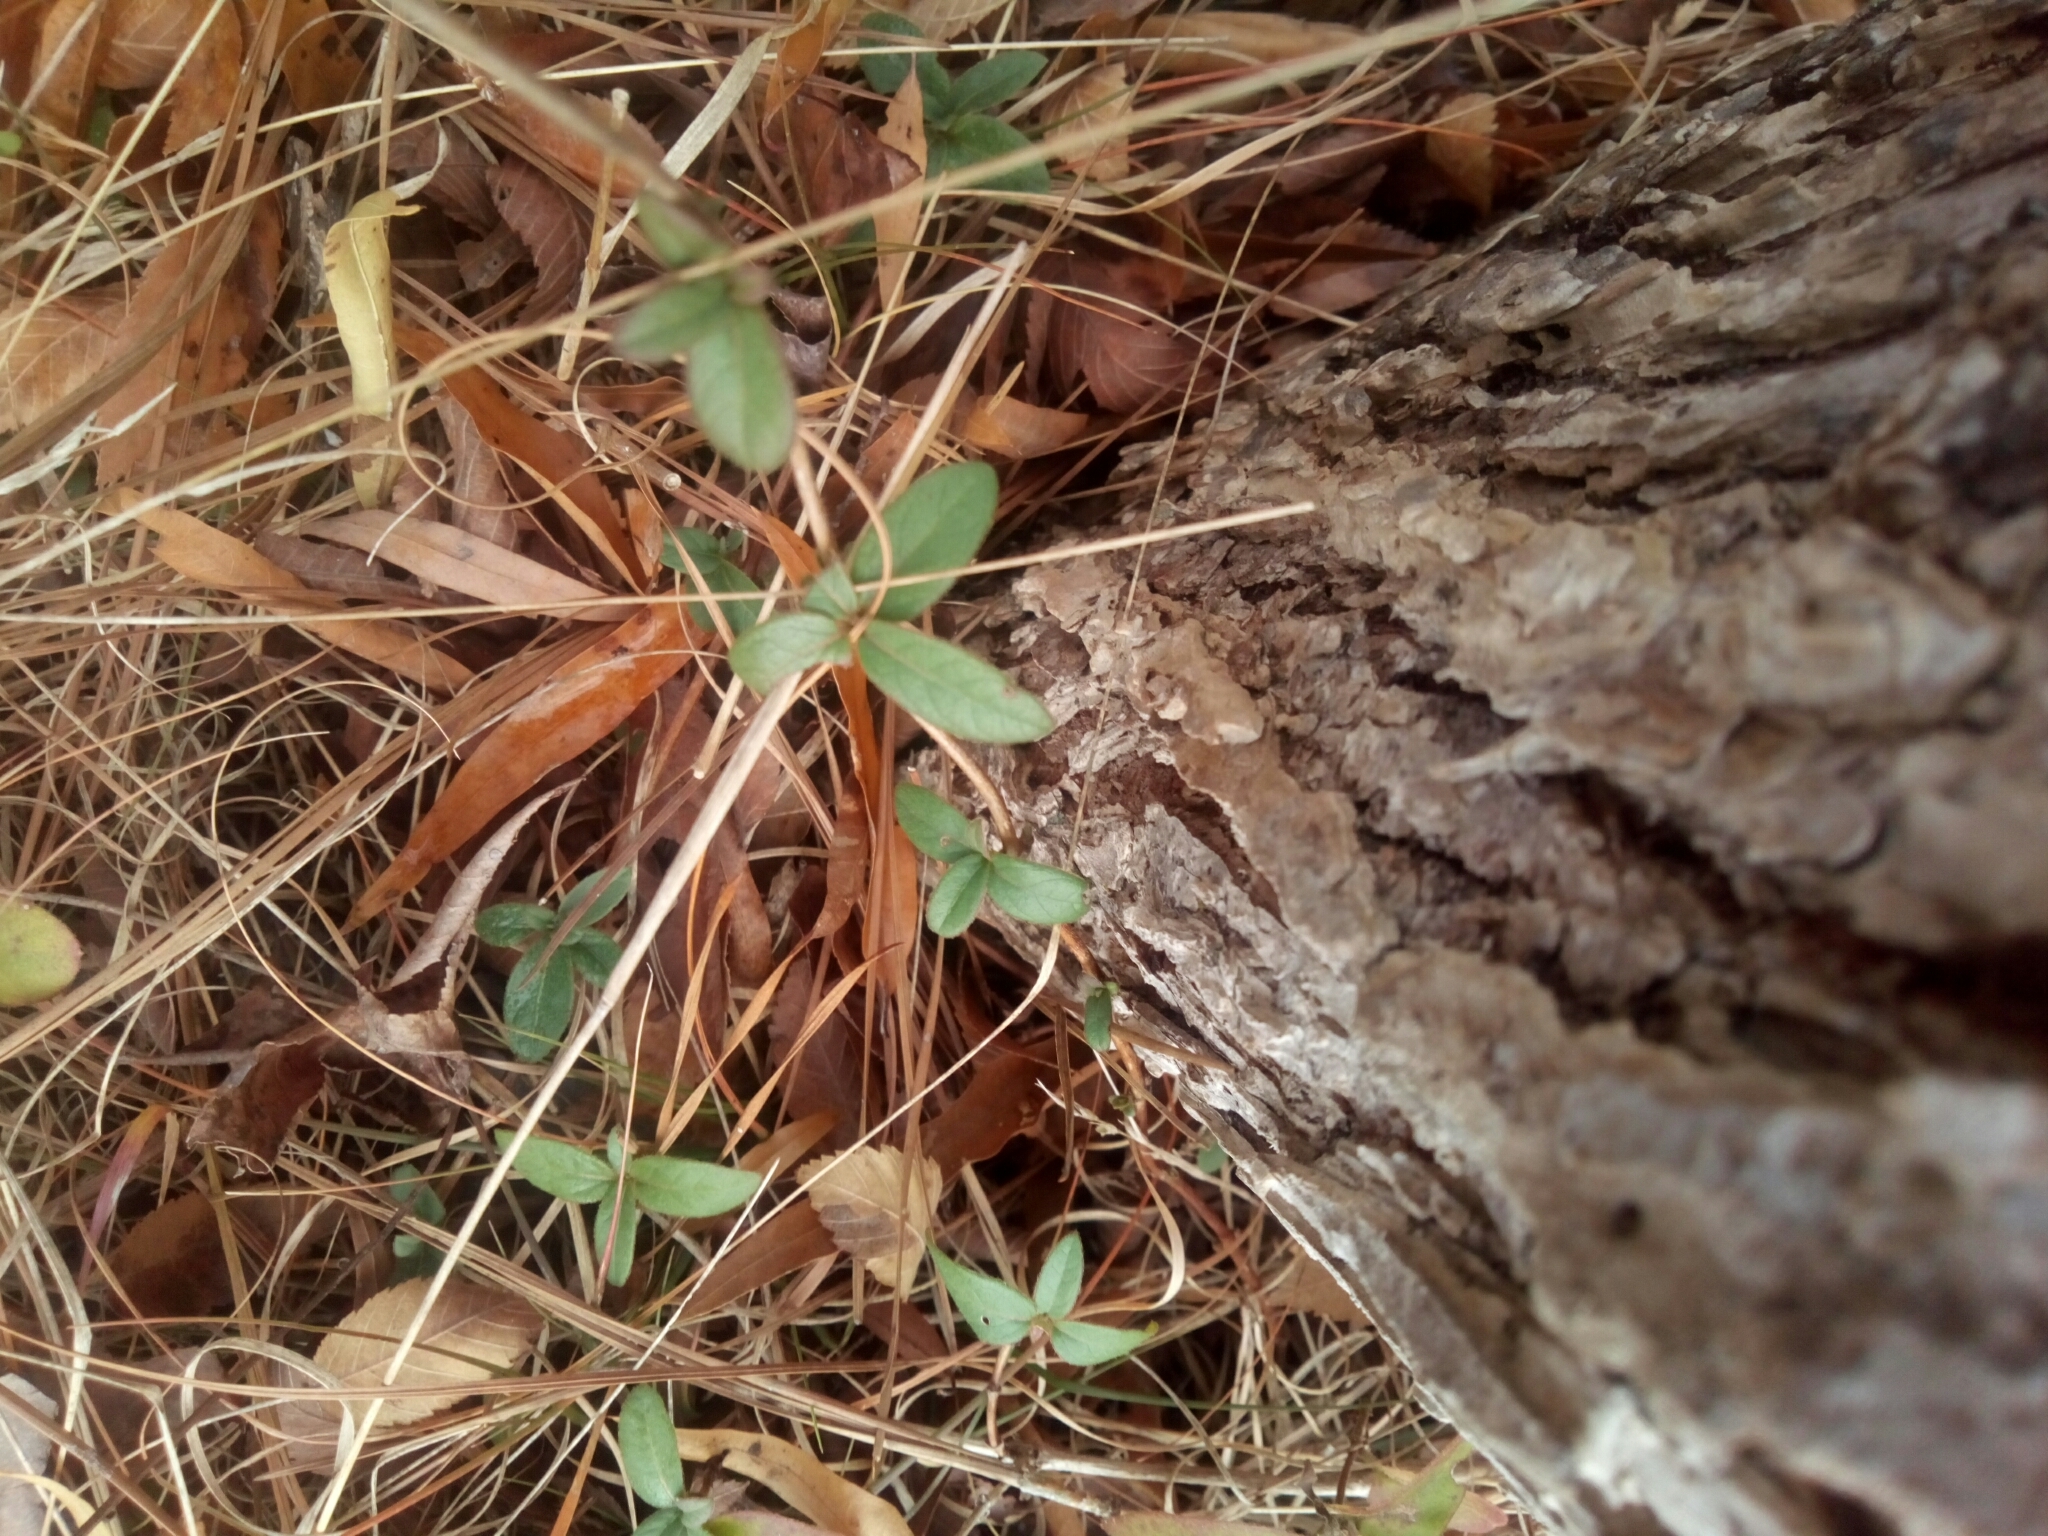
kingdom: Plantae
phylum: Tracheophyta
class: Magnoliopsida
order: Dipsacales
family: Caprifoliaceae
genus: Lonicera
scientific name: Lonicera japonica
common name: Japanese honeysuckle
